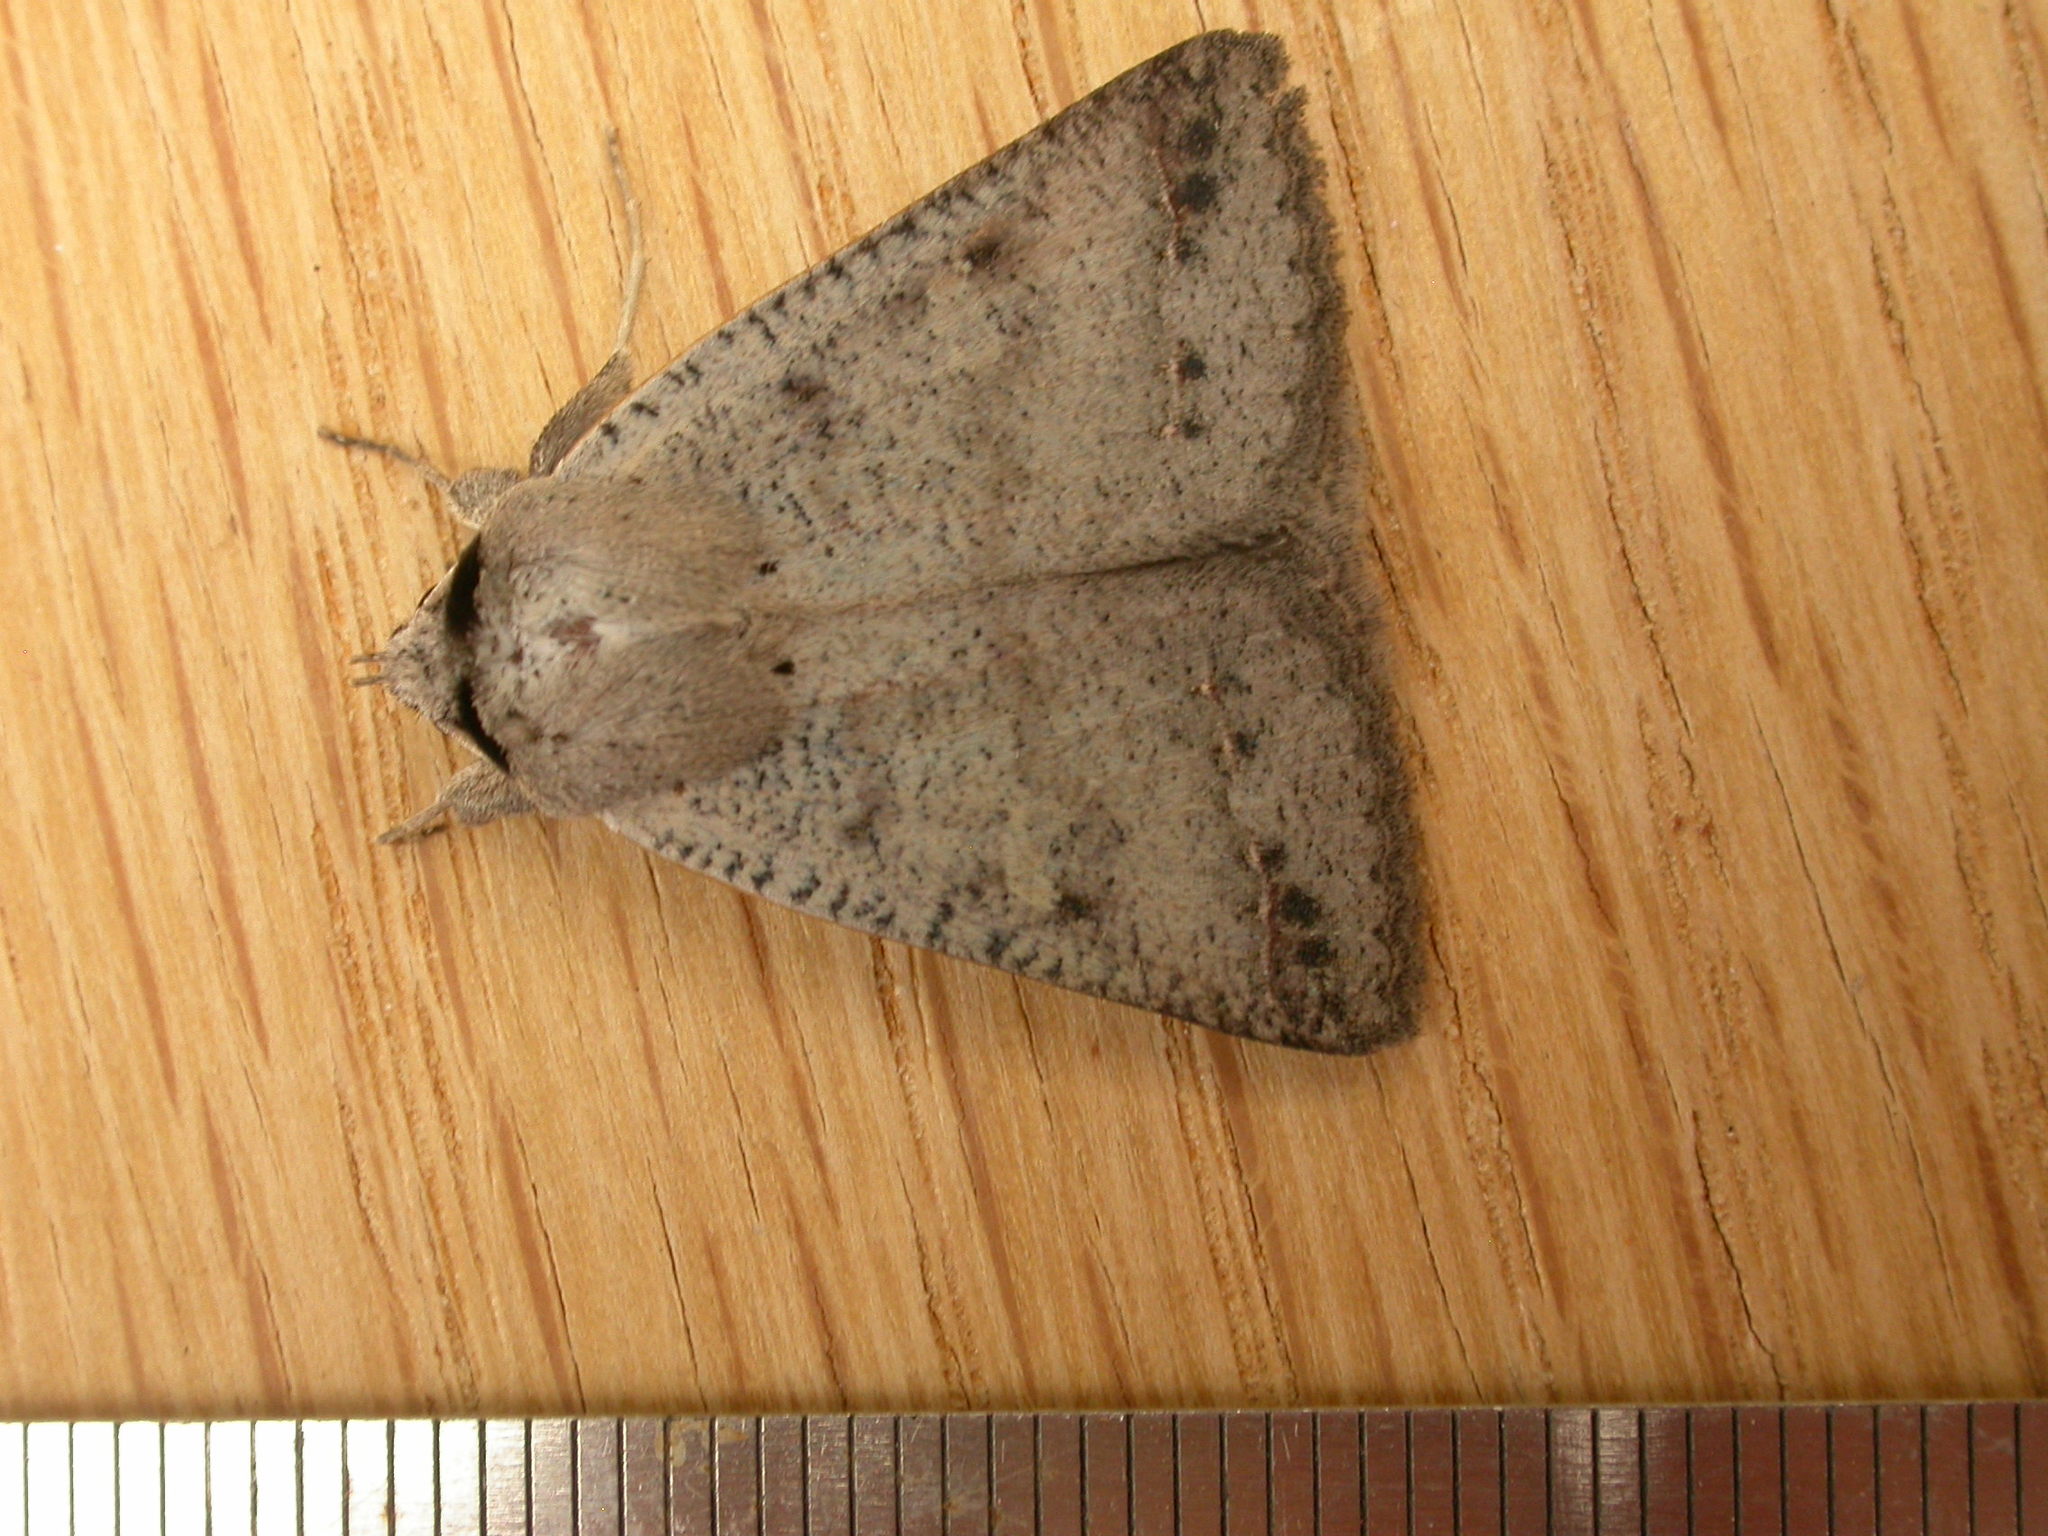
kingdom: Animalia
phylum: Arthropoda
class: Insecta
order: Lepidoptera
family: Erebidae
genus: Pantydia
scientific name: Pantydia sparsa
